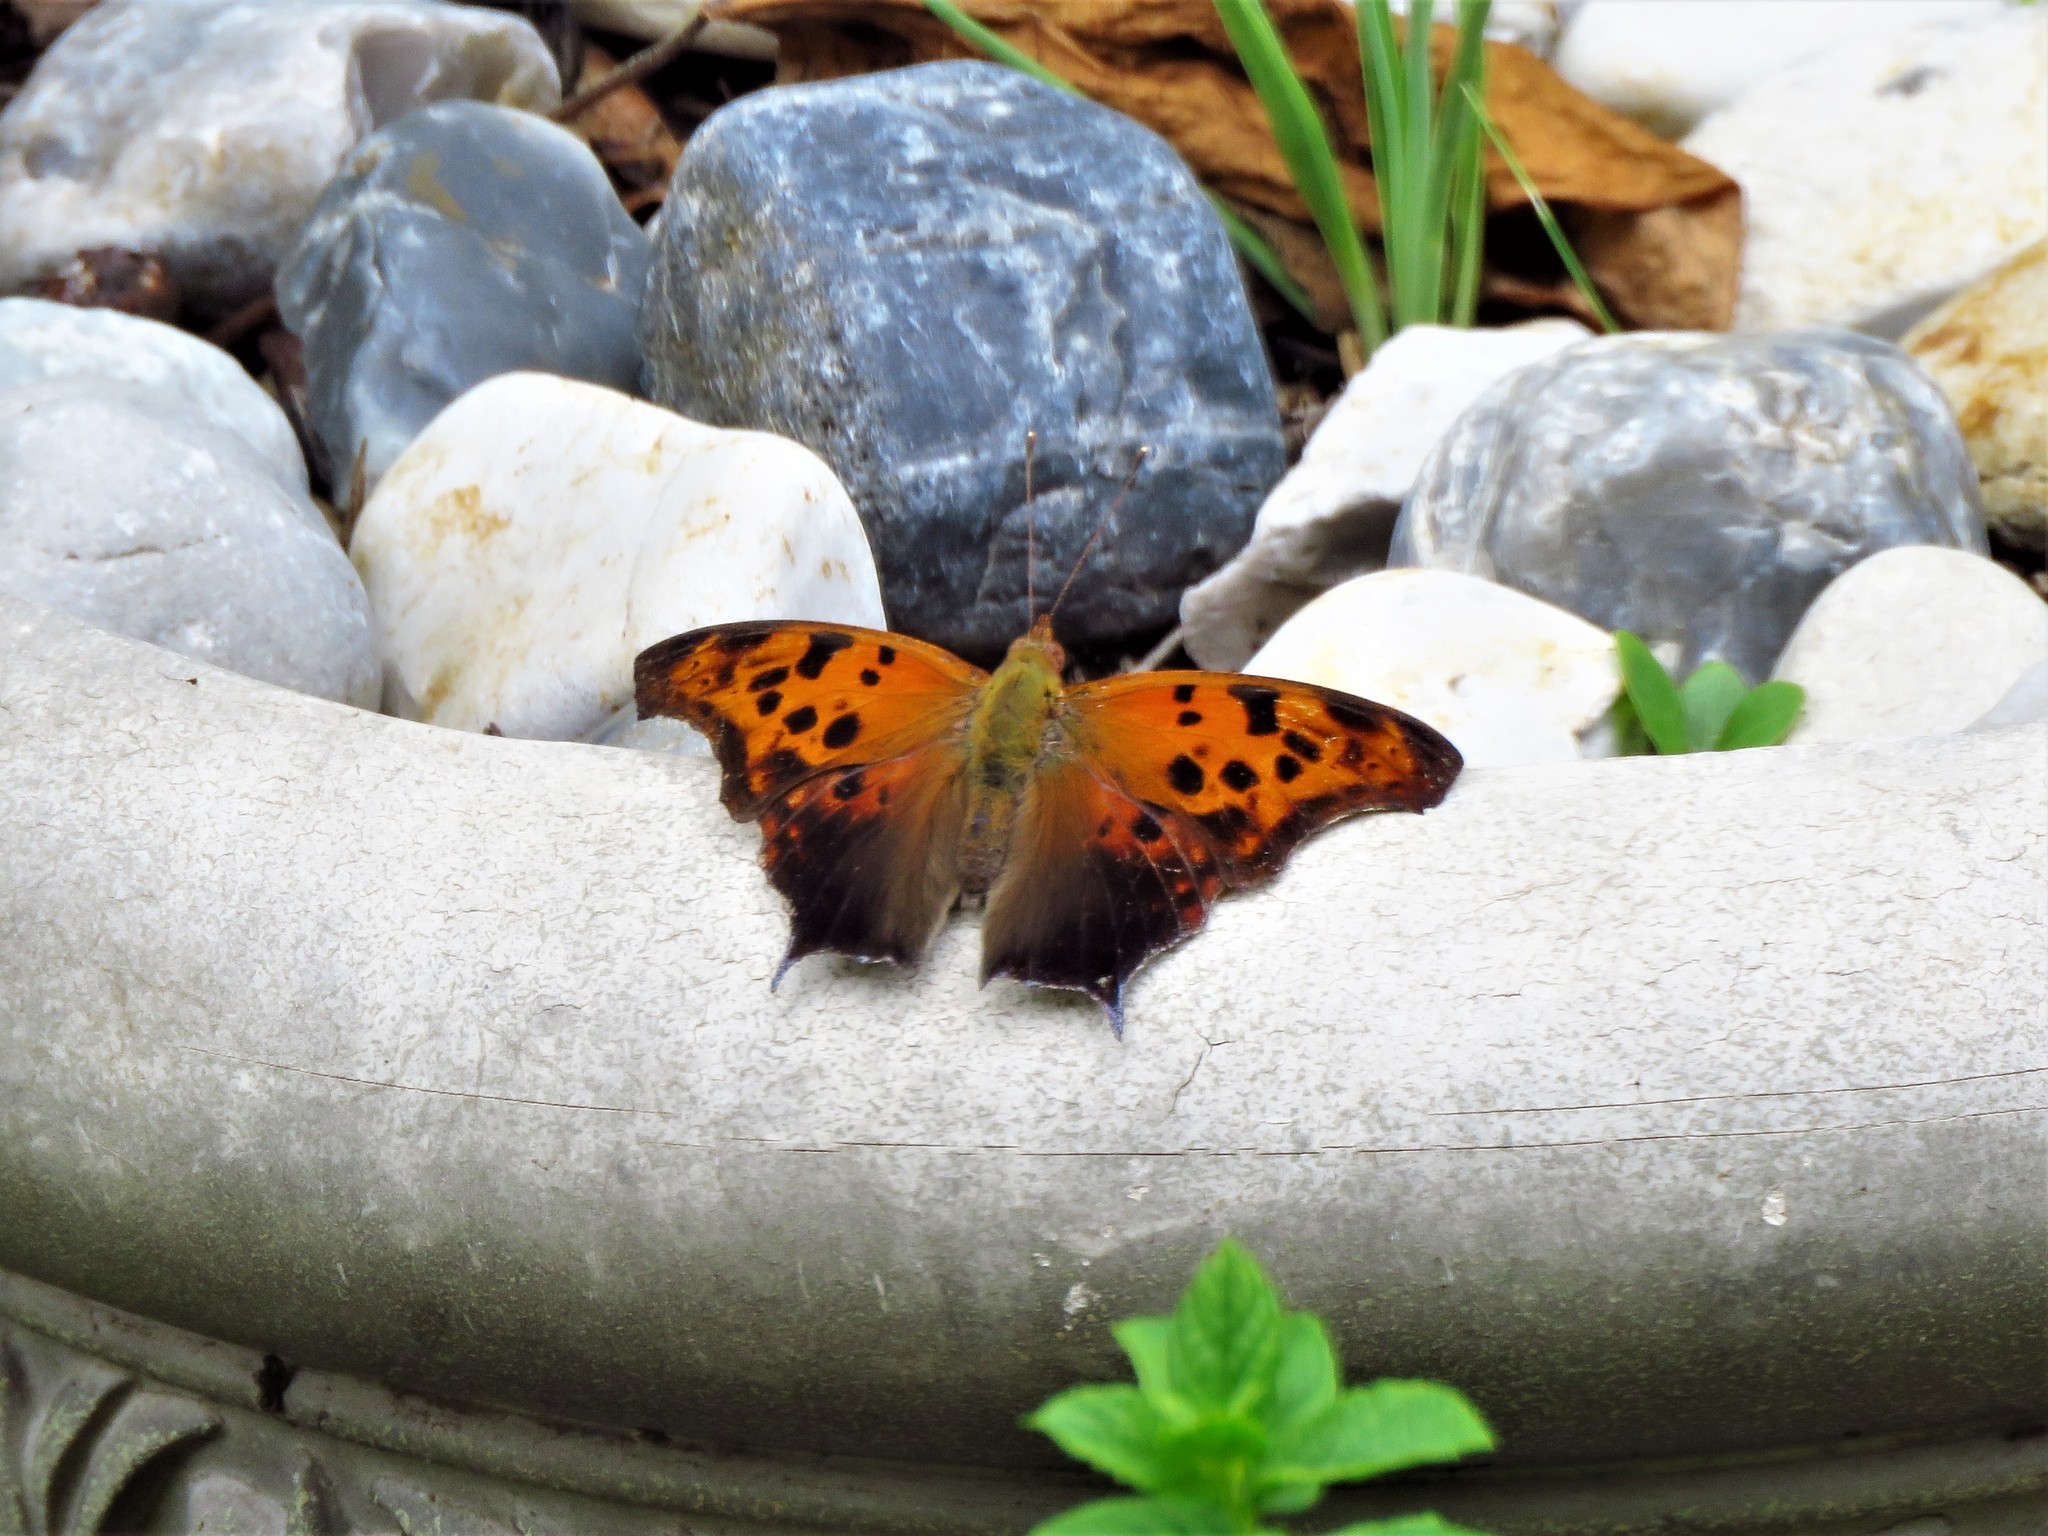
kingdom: Animalia
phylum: Arthropoda
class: Insecta
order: Lepidoptera
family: Nymphalidae
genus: Polygonia
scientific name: Polygonia interrogationis
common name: Question mark
